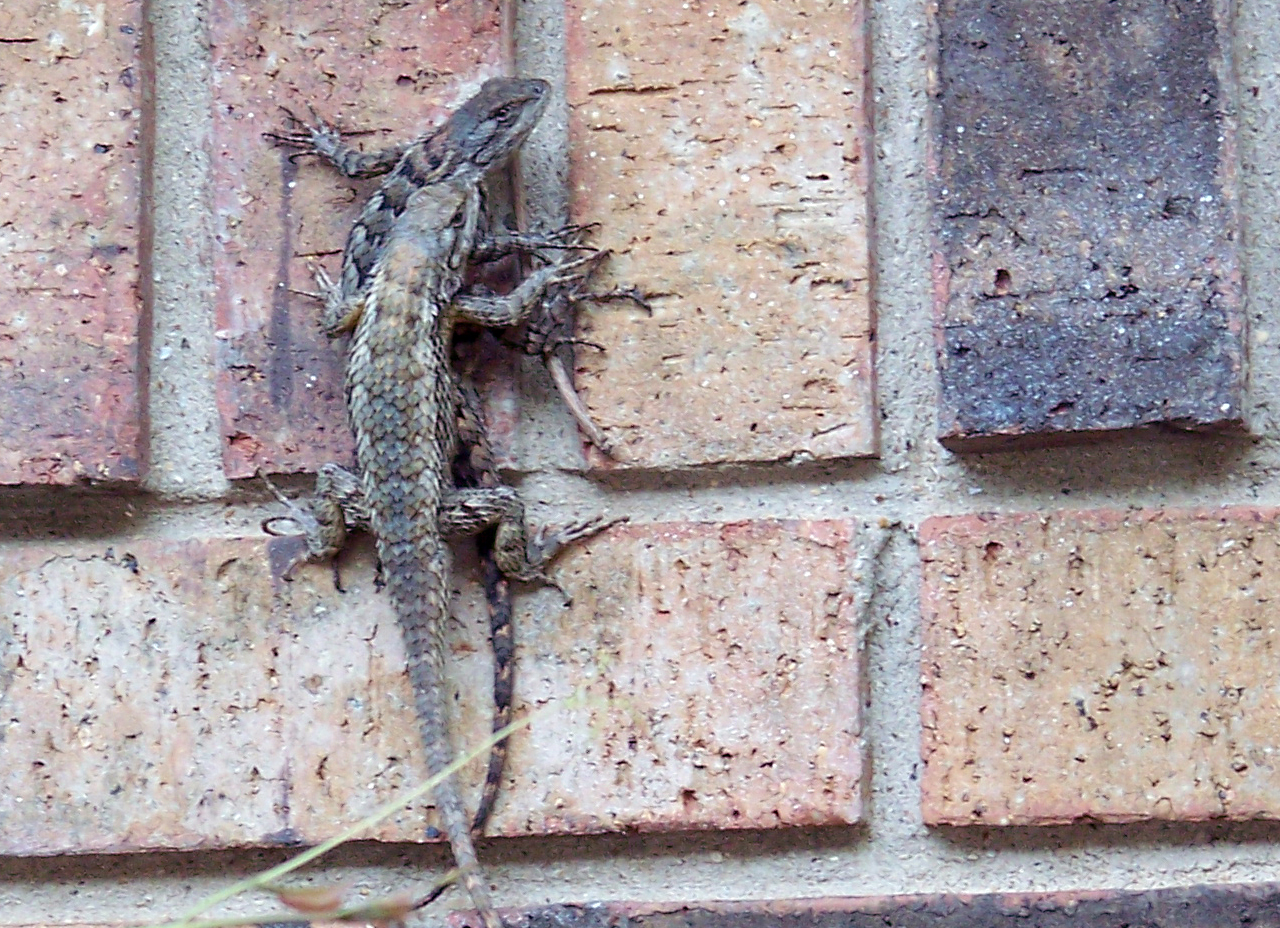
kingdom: Animalia
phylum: Chordata
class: Squamata
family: Phrynosomatidae
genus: Sceloporus
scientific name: Sceloporus olivaceus
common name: Texas spiny lizard
